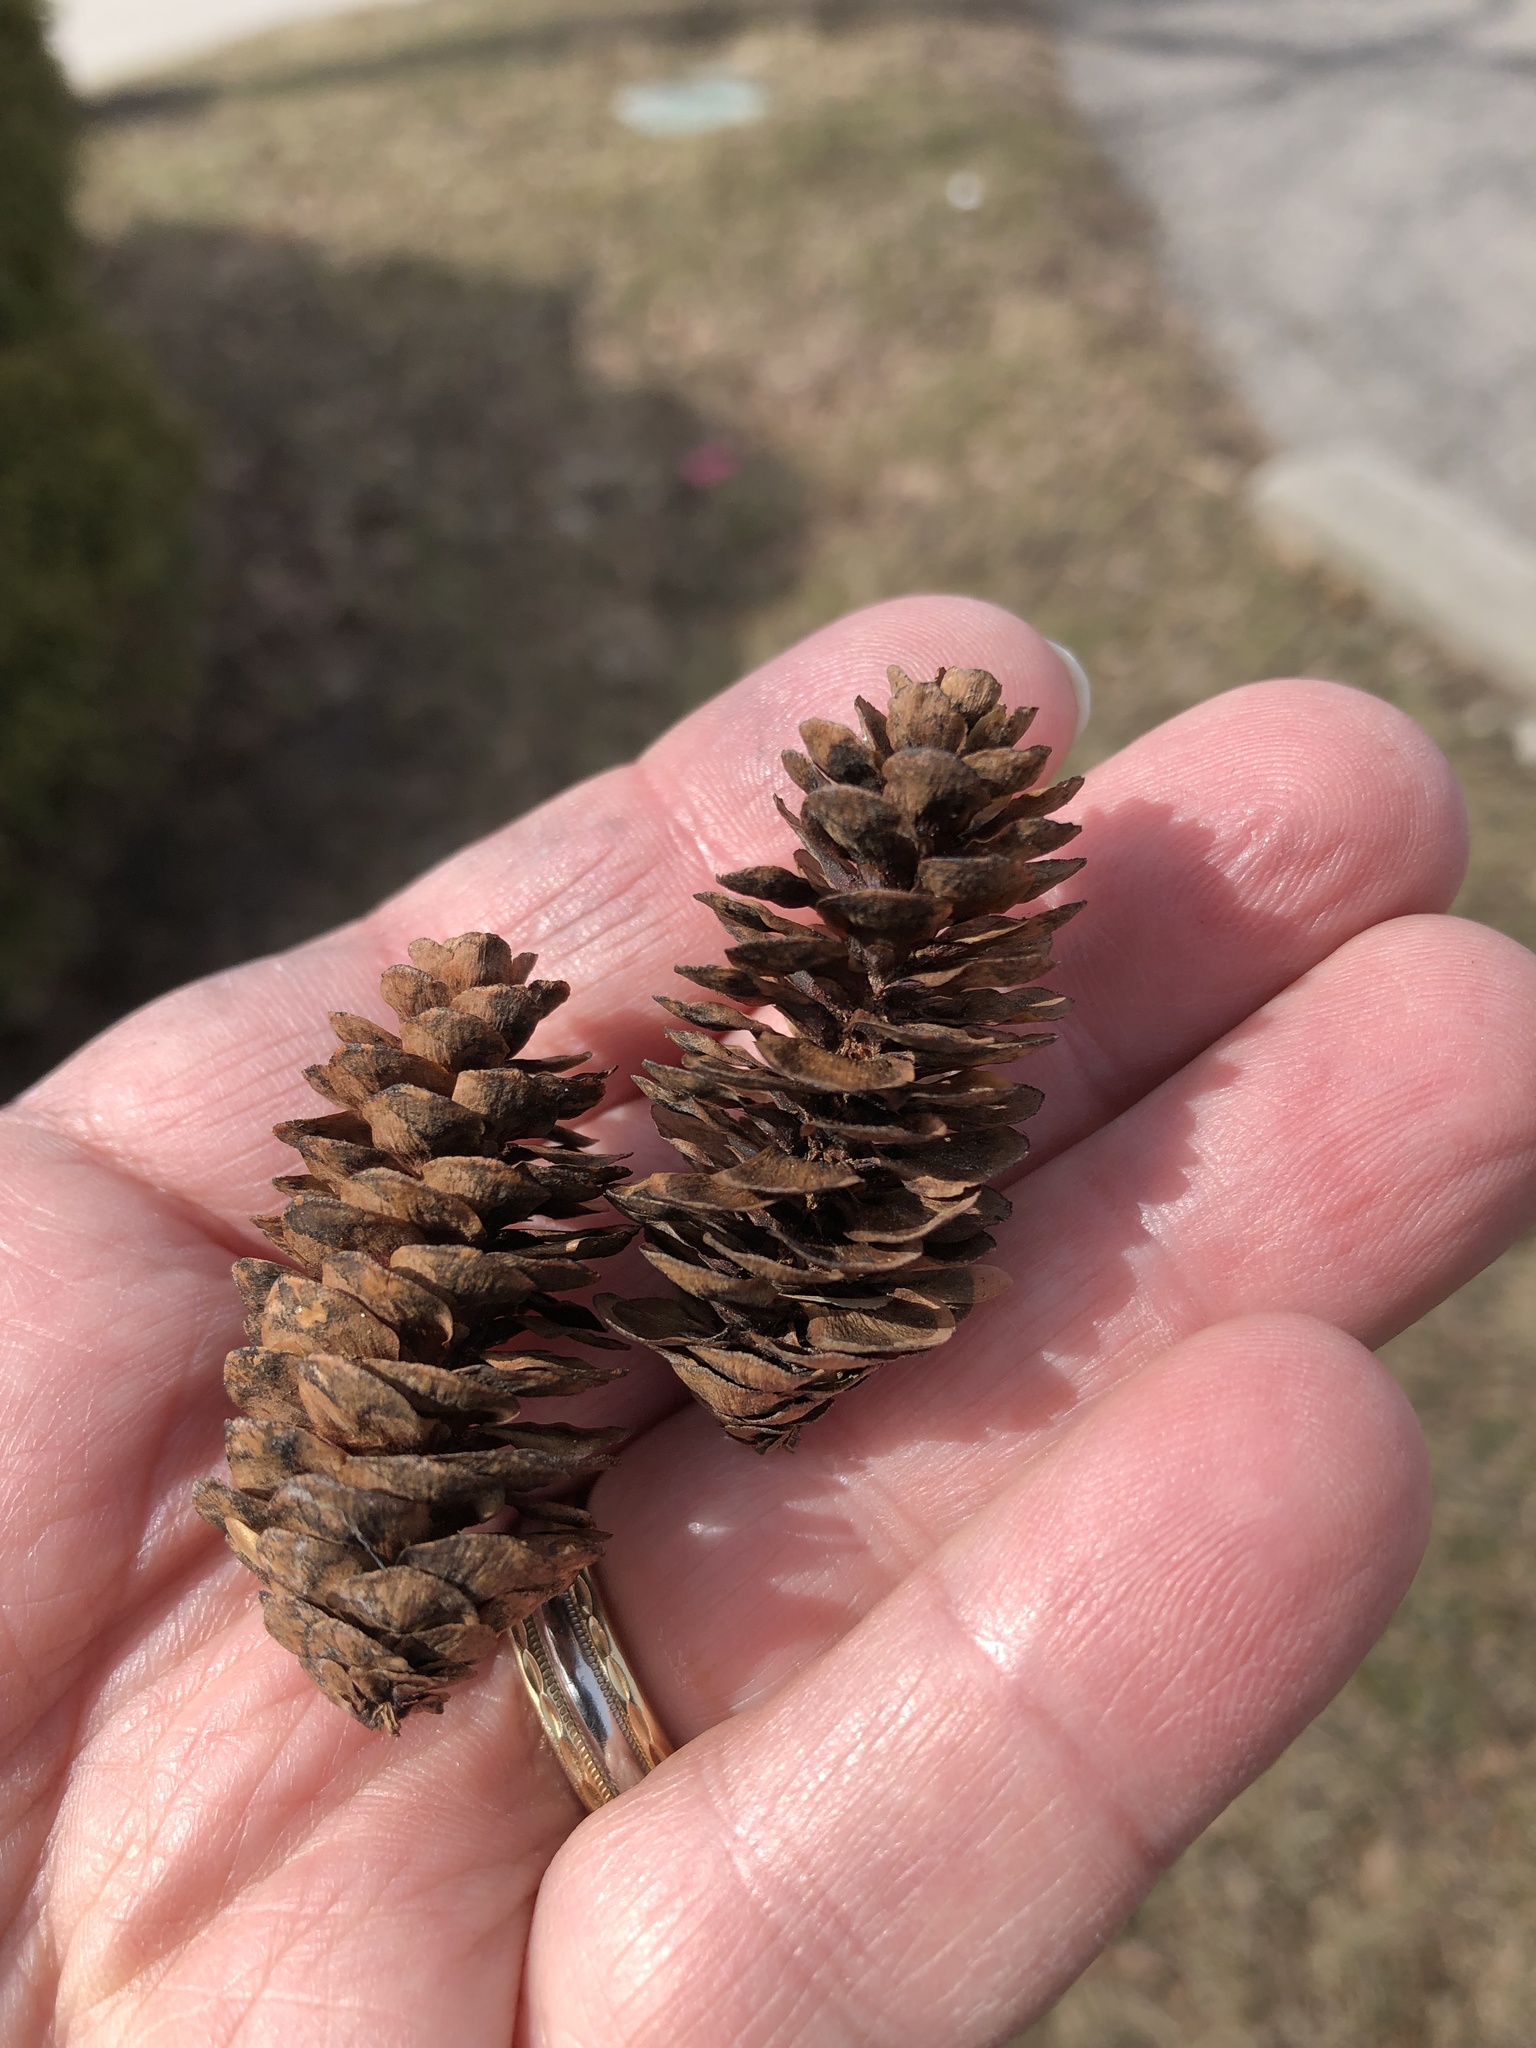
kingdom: Plantae
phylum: Tracheophyta
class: Pinopsida
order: Pinales
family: Pinaceae
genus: Picea
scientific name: Picea glauca
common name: White spruce
